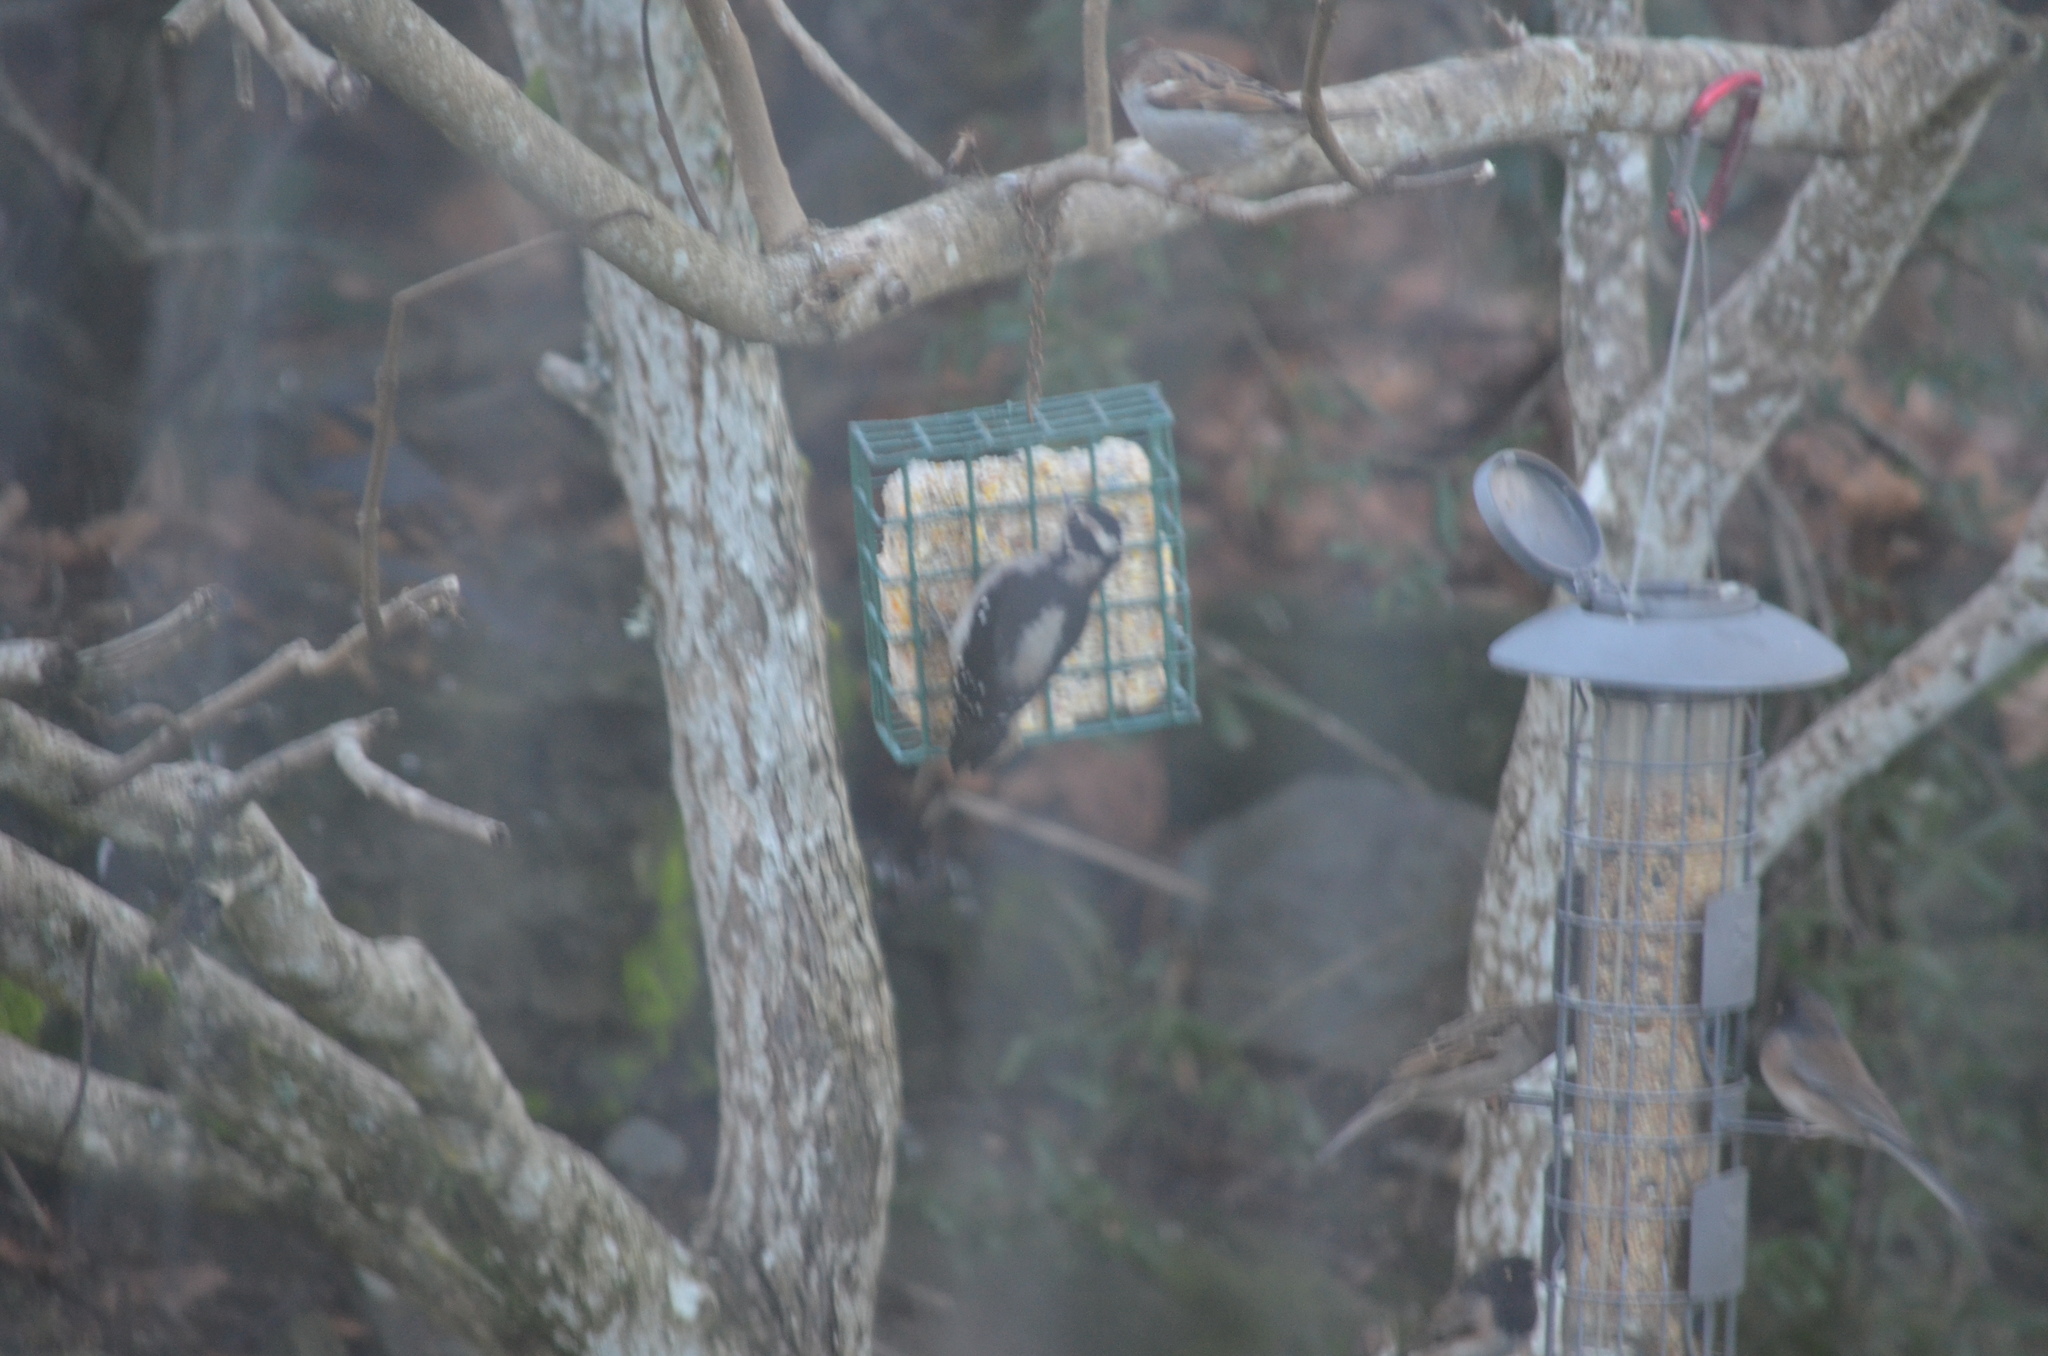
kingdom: Animalia
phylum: Chordata
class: Aves
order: Piciformes
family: Picidae
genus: Dryobates
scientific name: Dryobates pubescens
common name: Downy woodpecker
